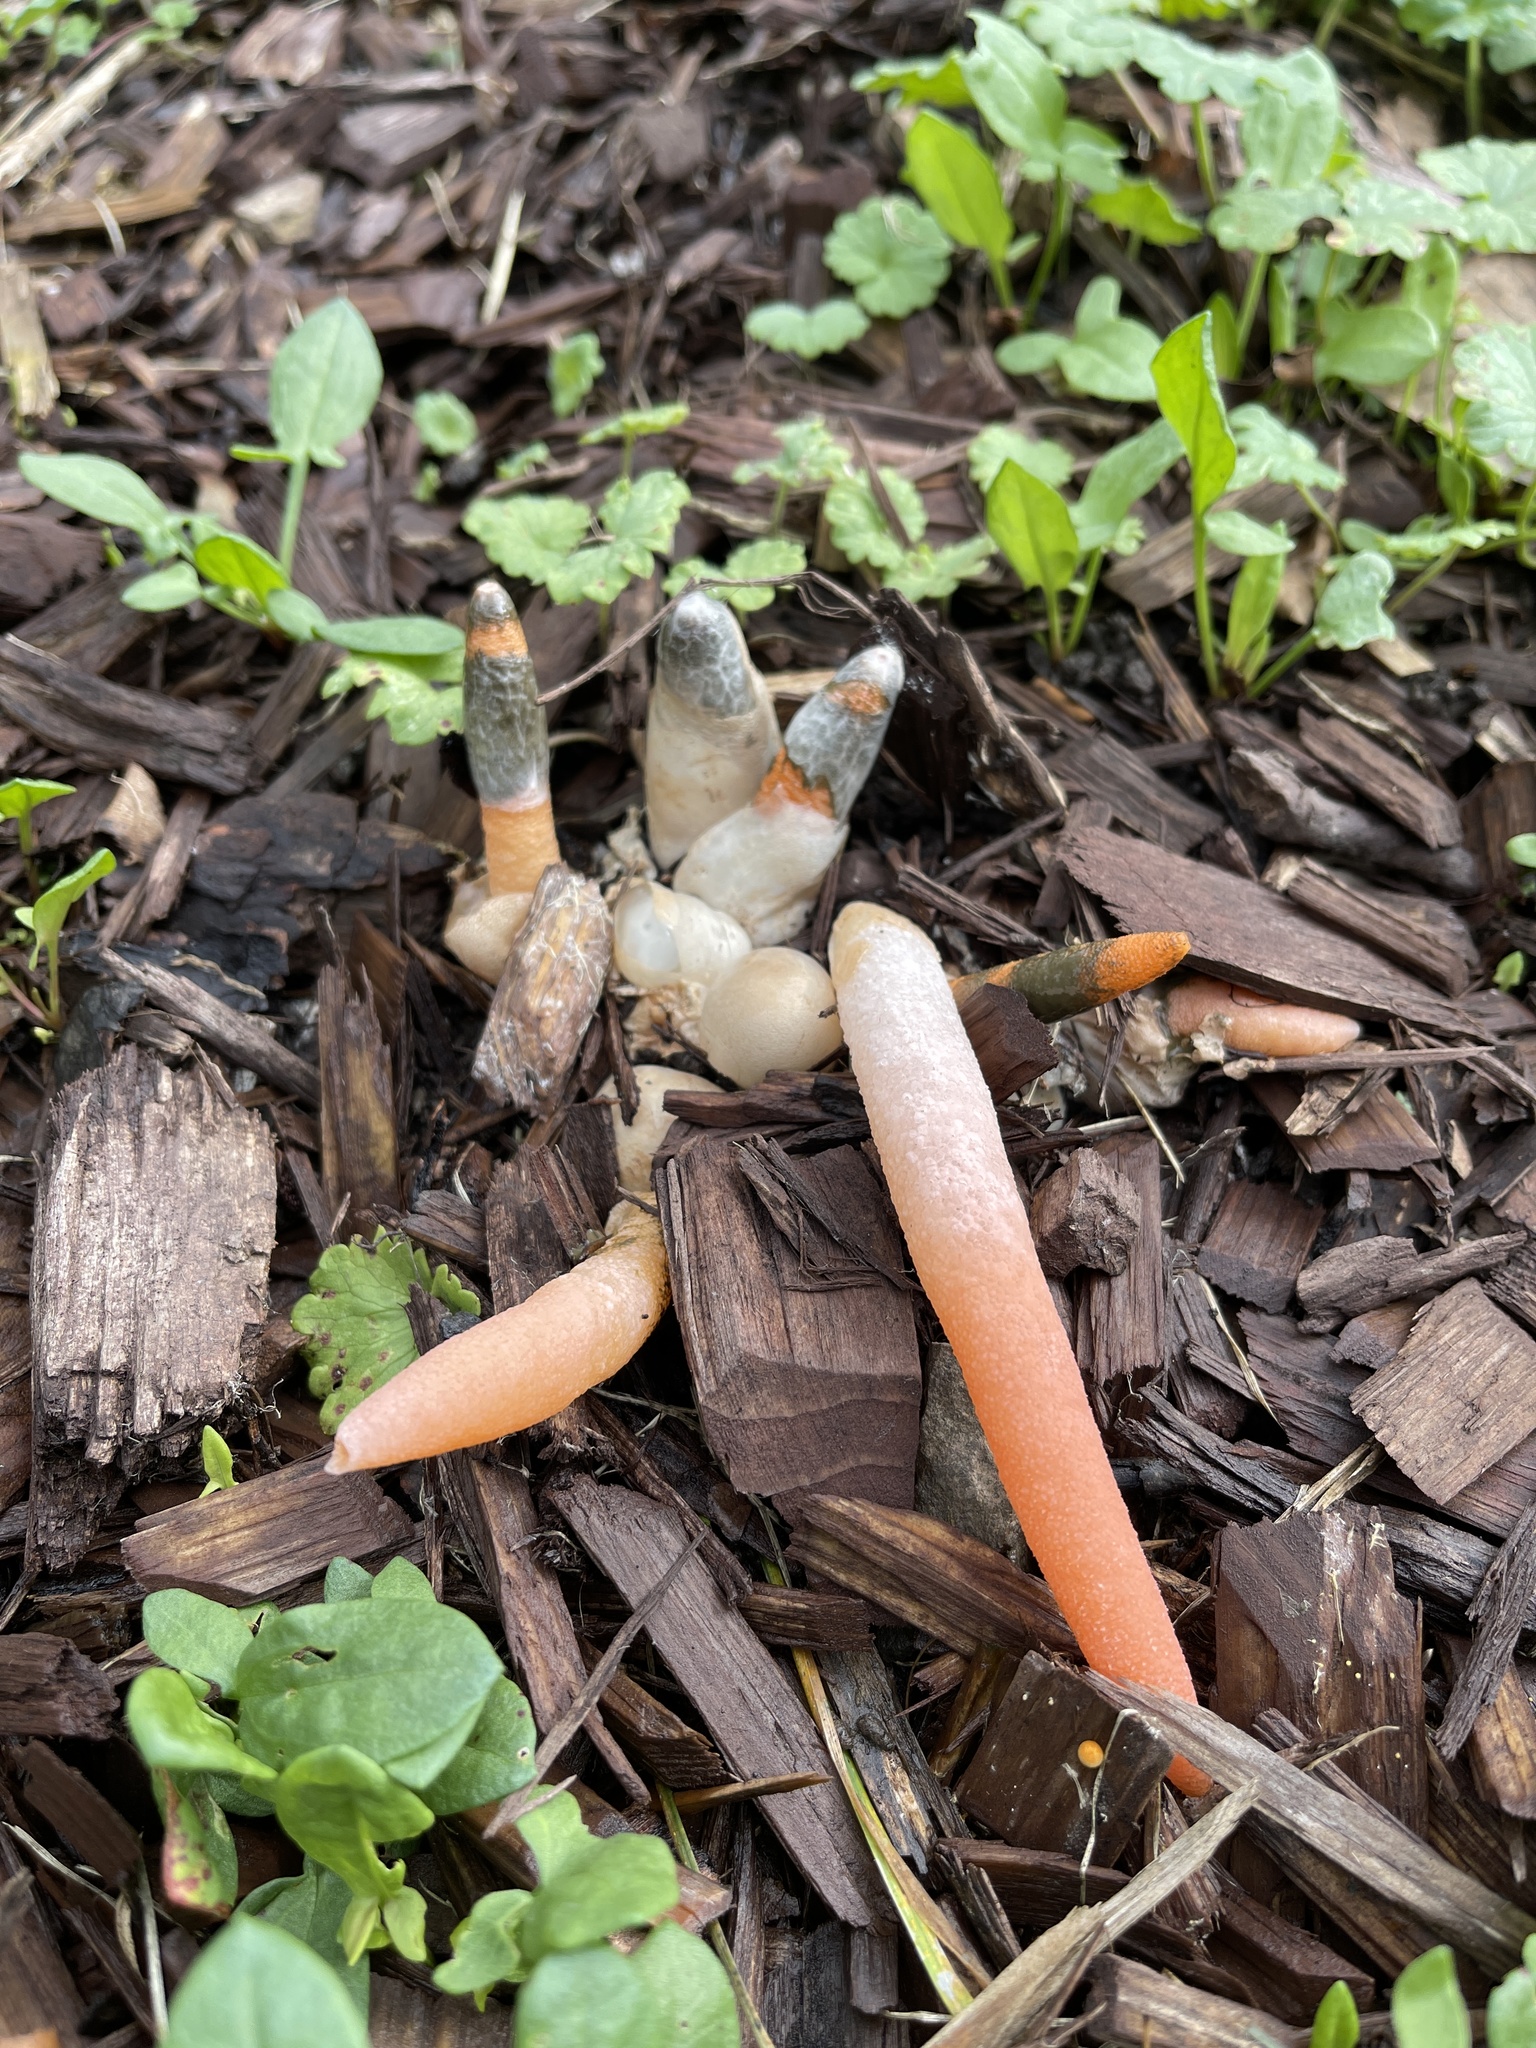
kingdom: Fungi
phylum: Basidiomycota
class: Agaricomycetes
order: Phallales
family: Phallaceae
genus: Mutinus
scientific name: Mutinus elegans
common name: Devil's dipstick
